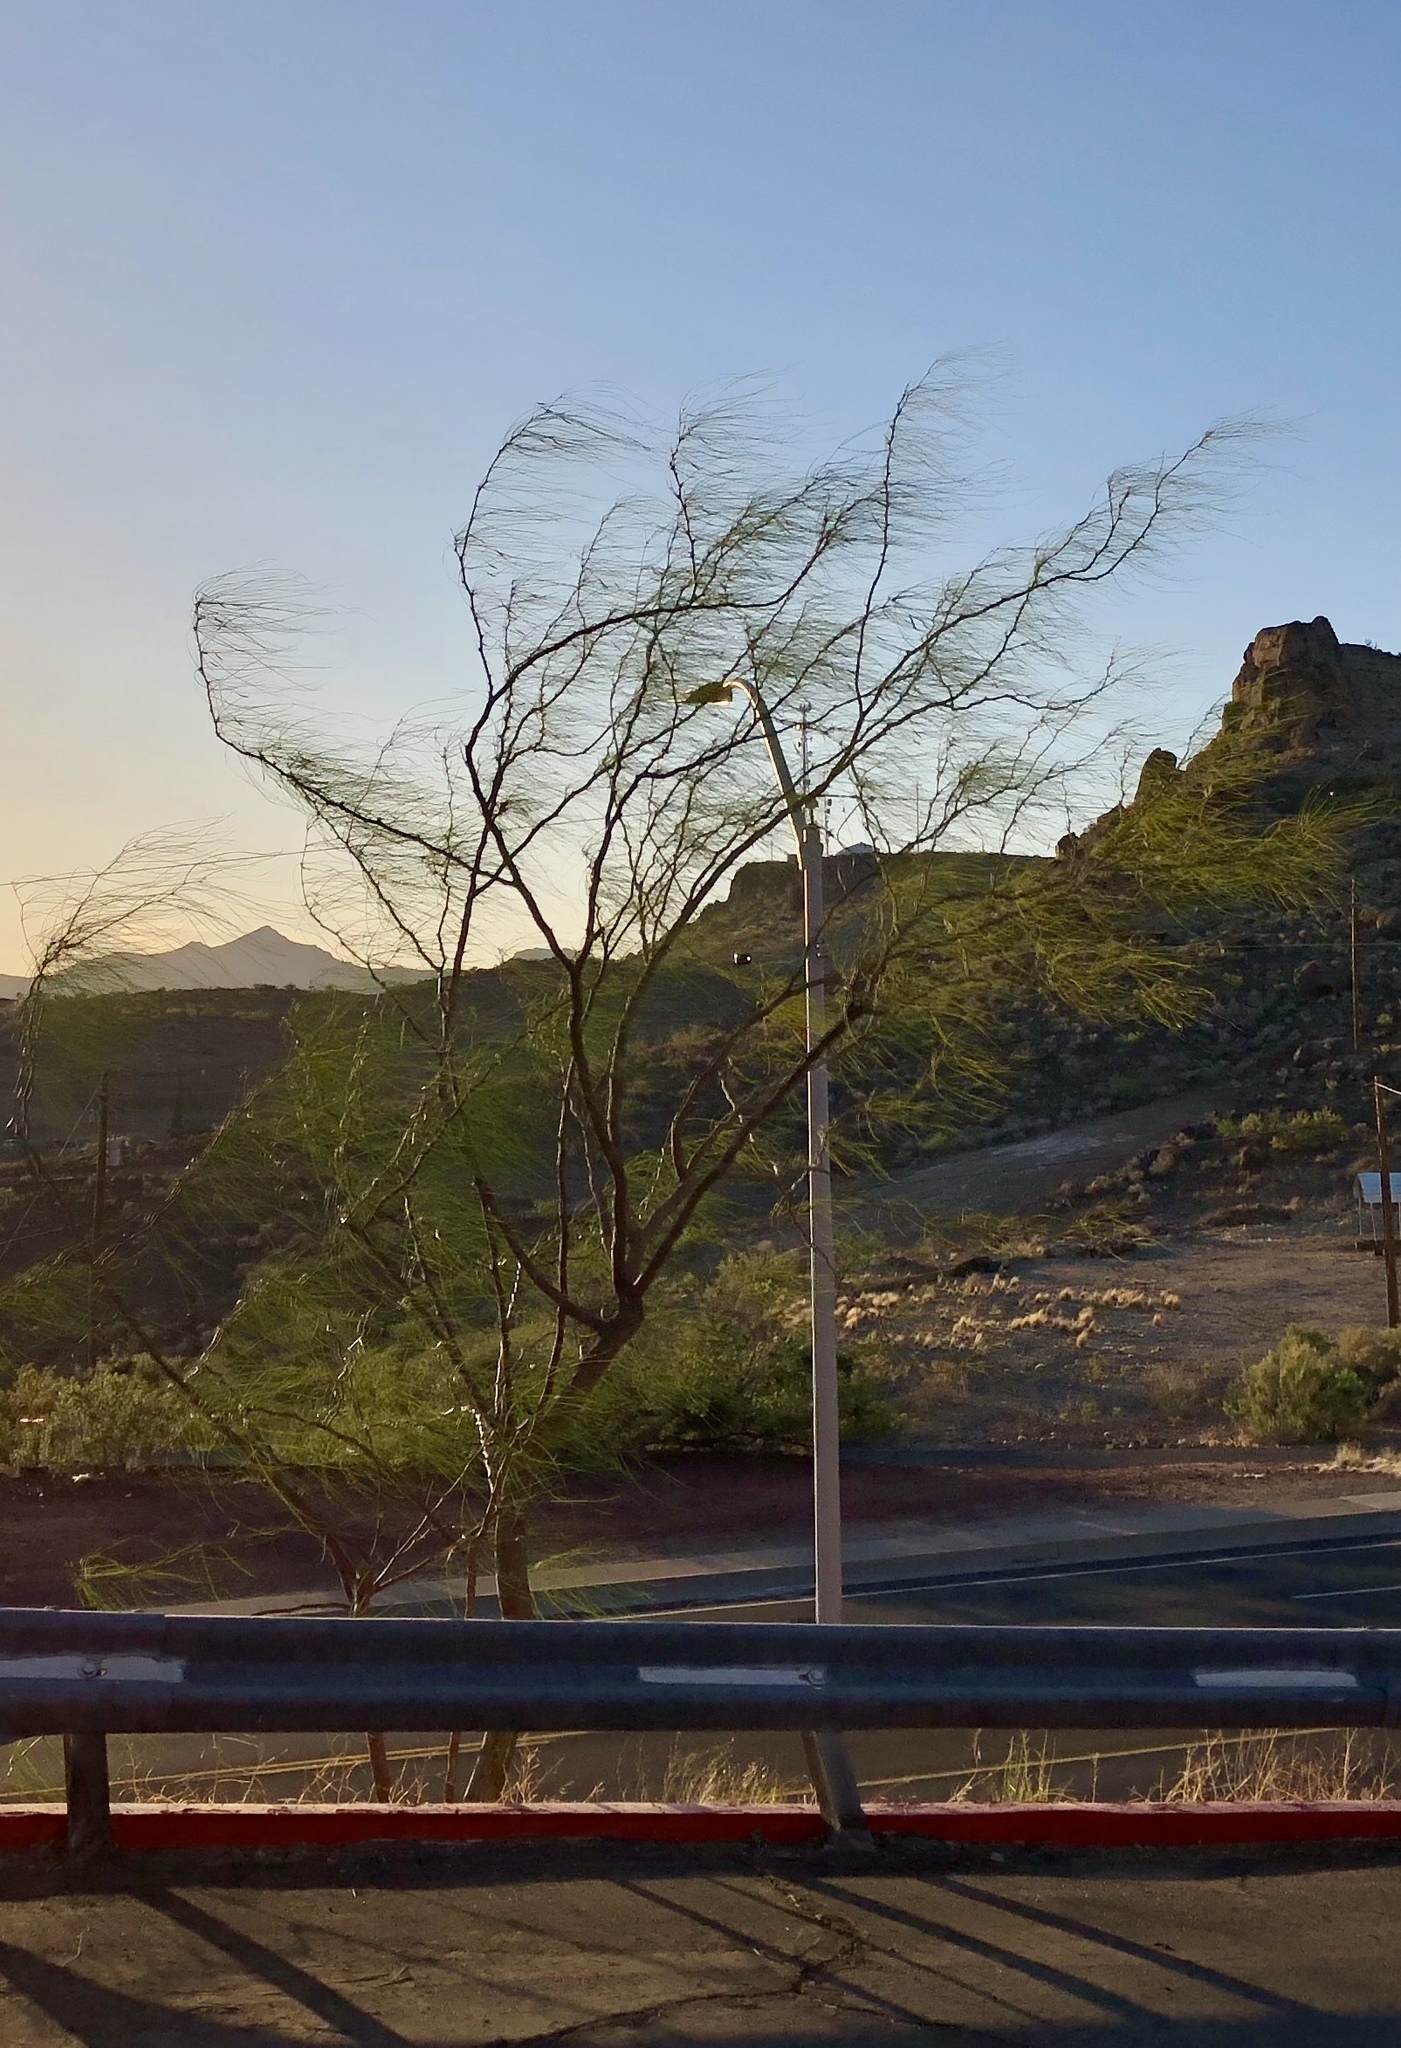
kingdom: Plantae
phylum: Tracheophyta
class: Magnoliopsida
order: Fabales
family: Fabaceae
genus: Parkinsonia
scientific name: Parkinsonia aculeata
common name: Jerusalem thorn
